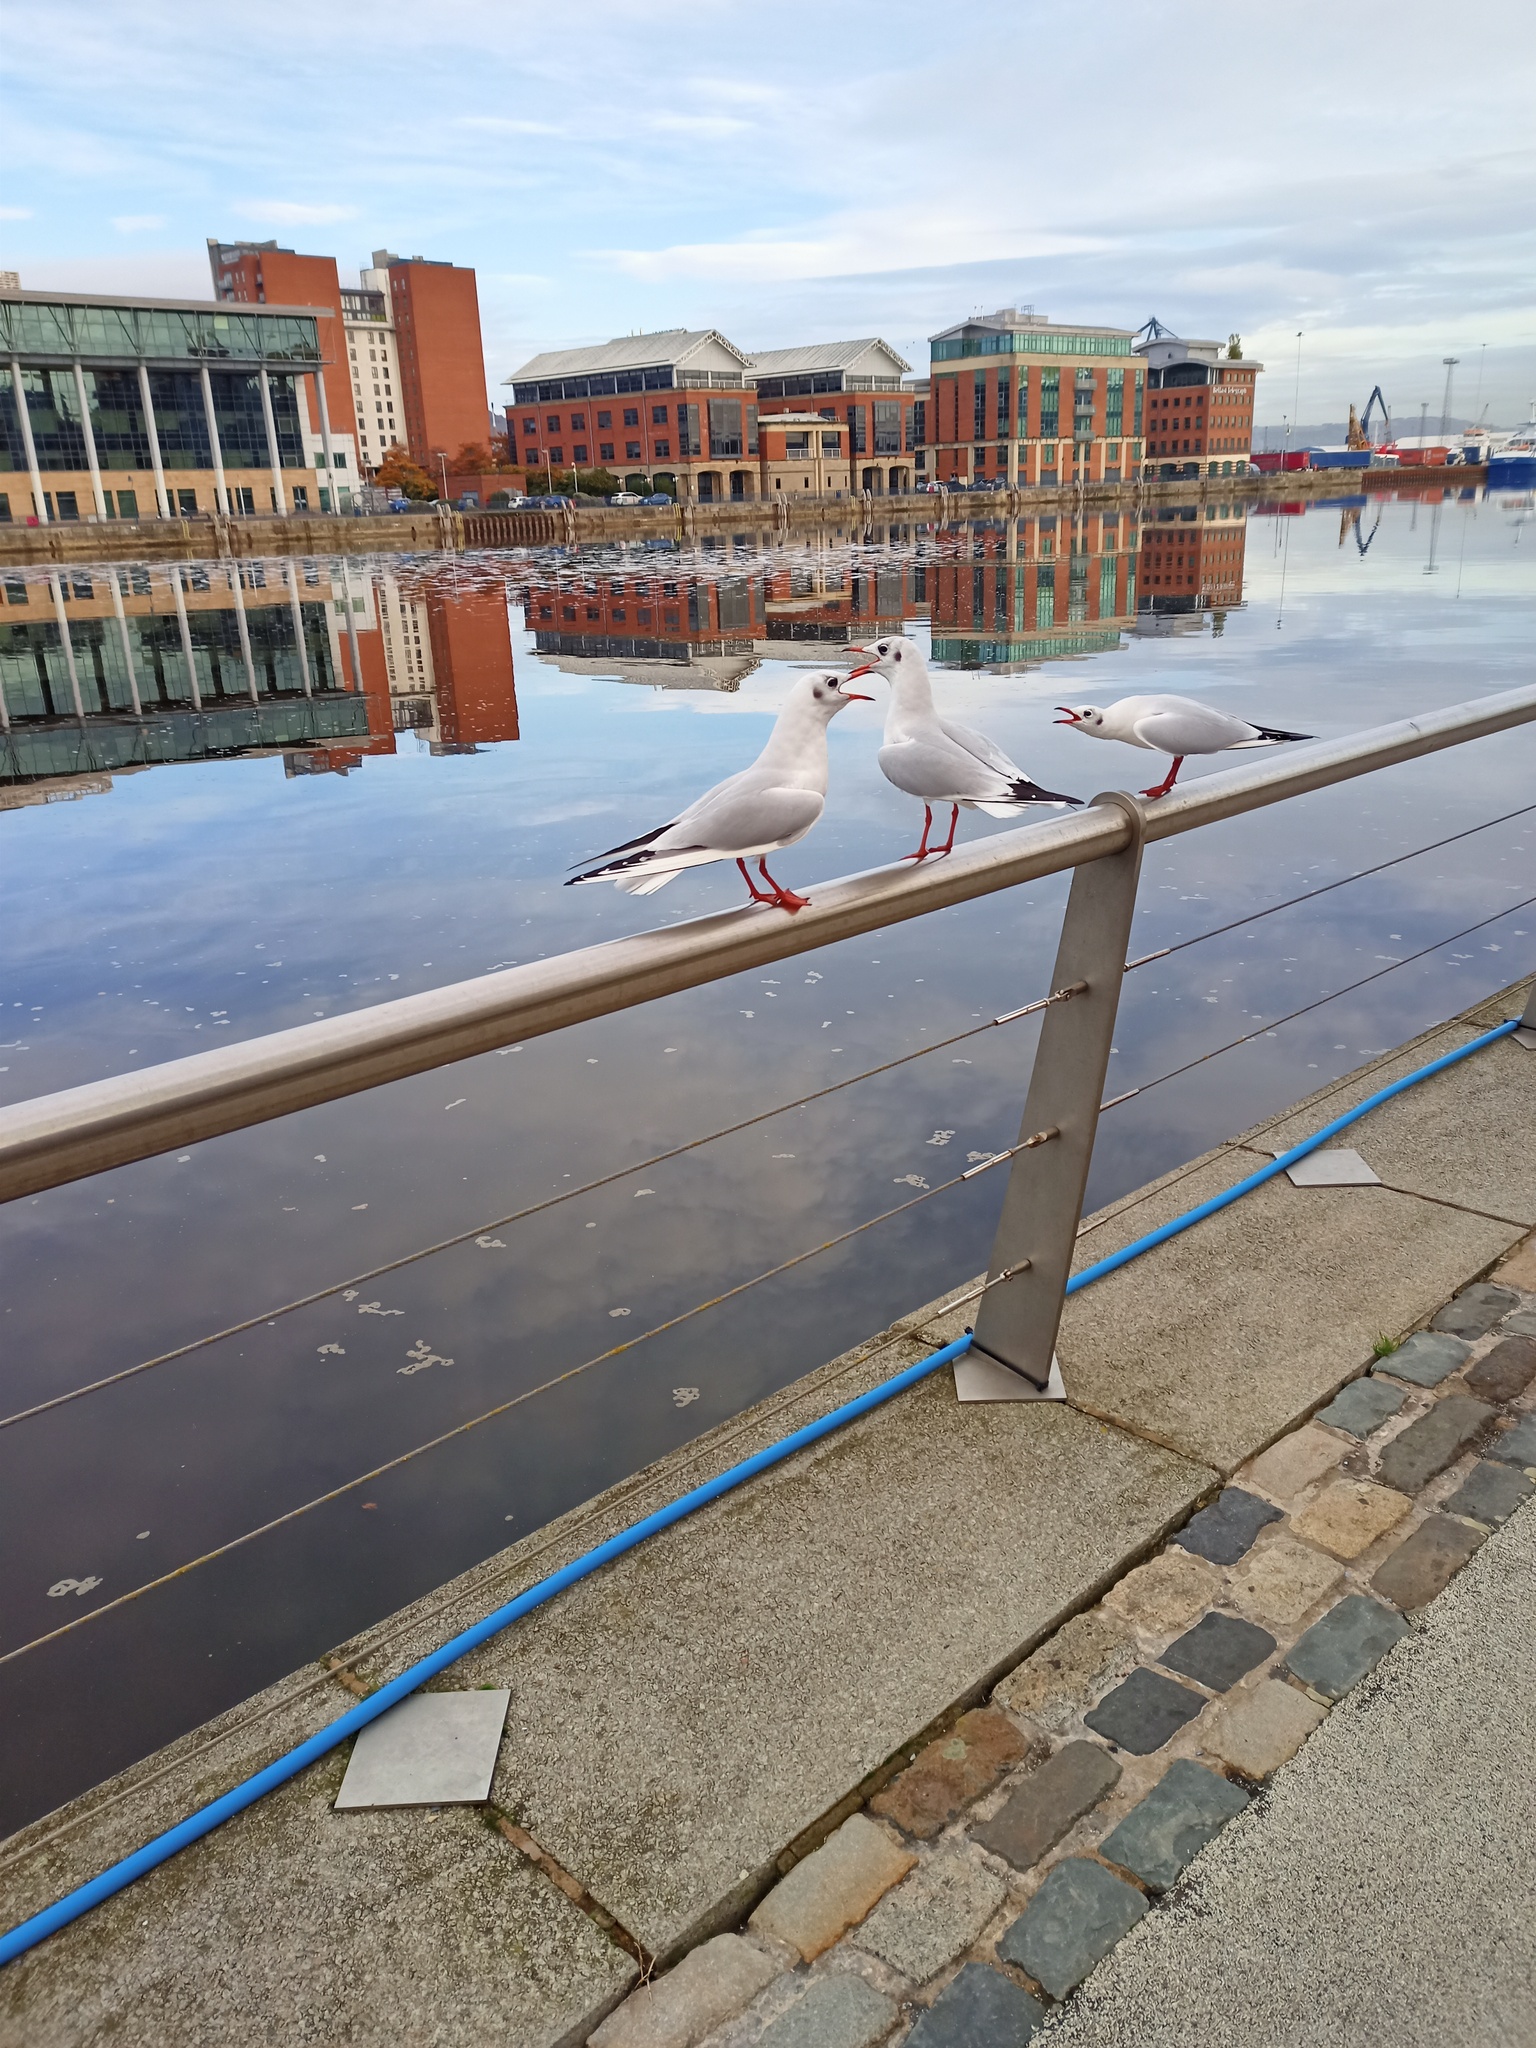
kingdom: Animalia
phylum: Chordata
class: Aves
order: Charadriiformes
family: Laridae
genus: Chroicocephalus
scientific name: Chroicocephalus ridibundus
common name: Black-headed gull
